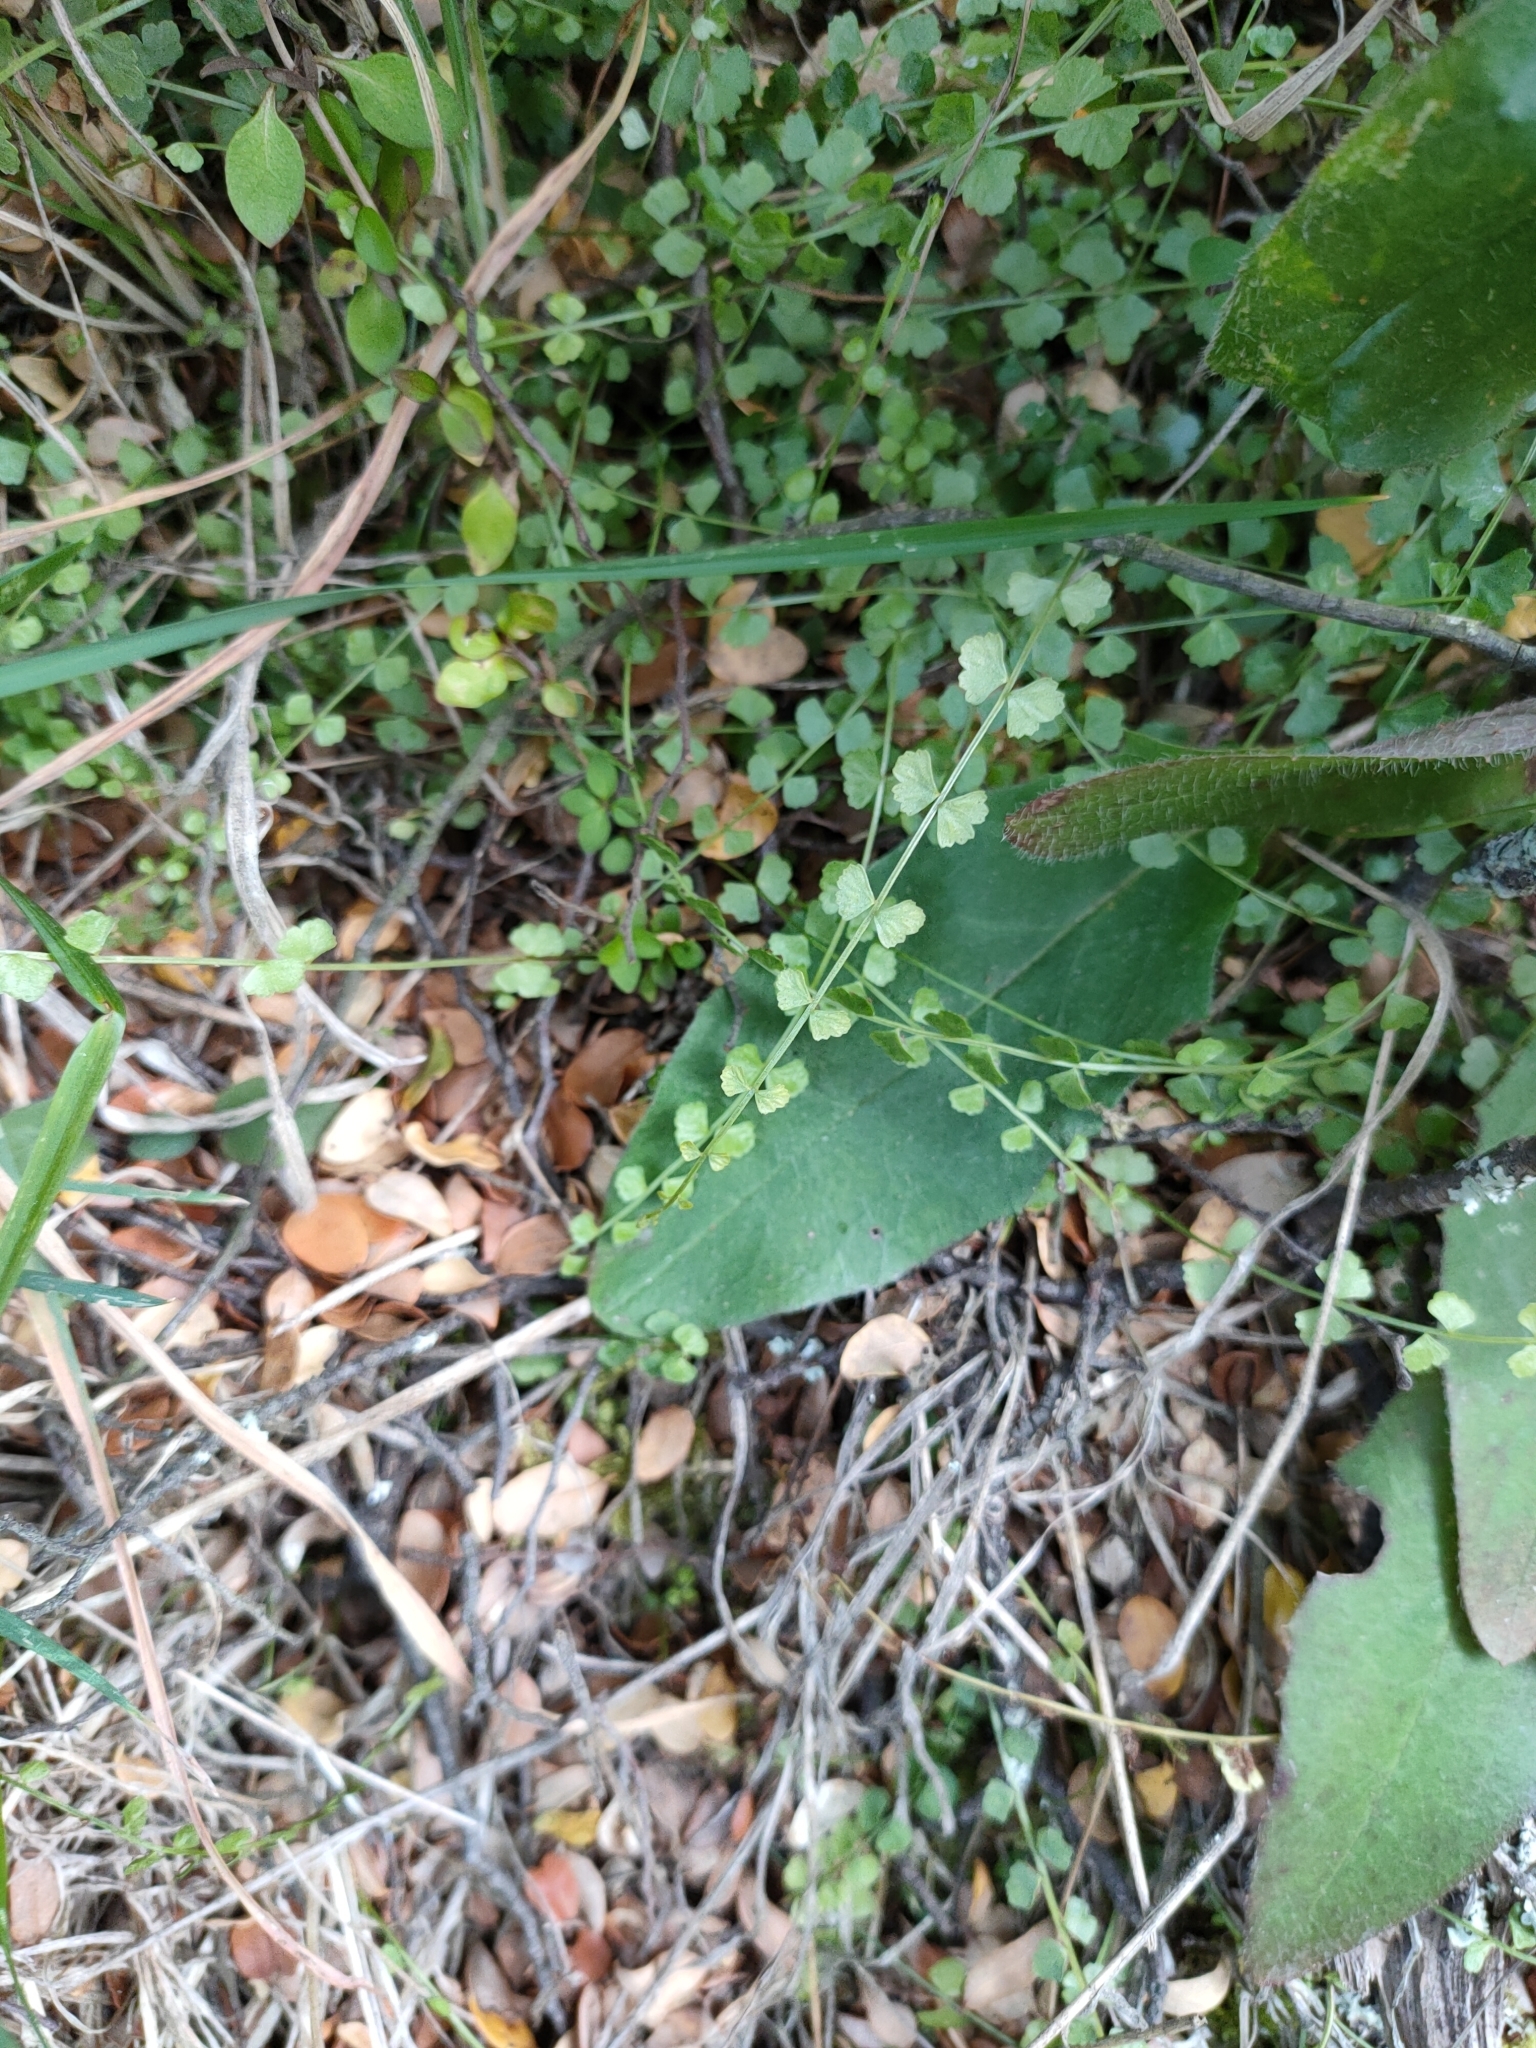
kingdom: Plantae
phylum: Tracheophyta
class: Polypodiopsida
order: Polypodiales
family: Aspleniaceae
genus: Asplenium
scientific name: Asplenium flabellifolium
